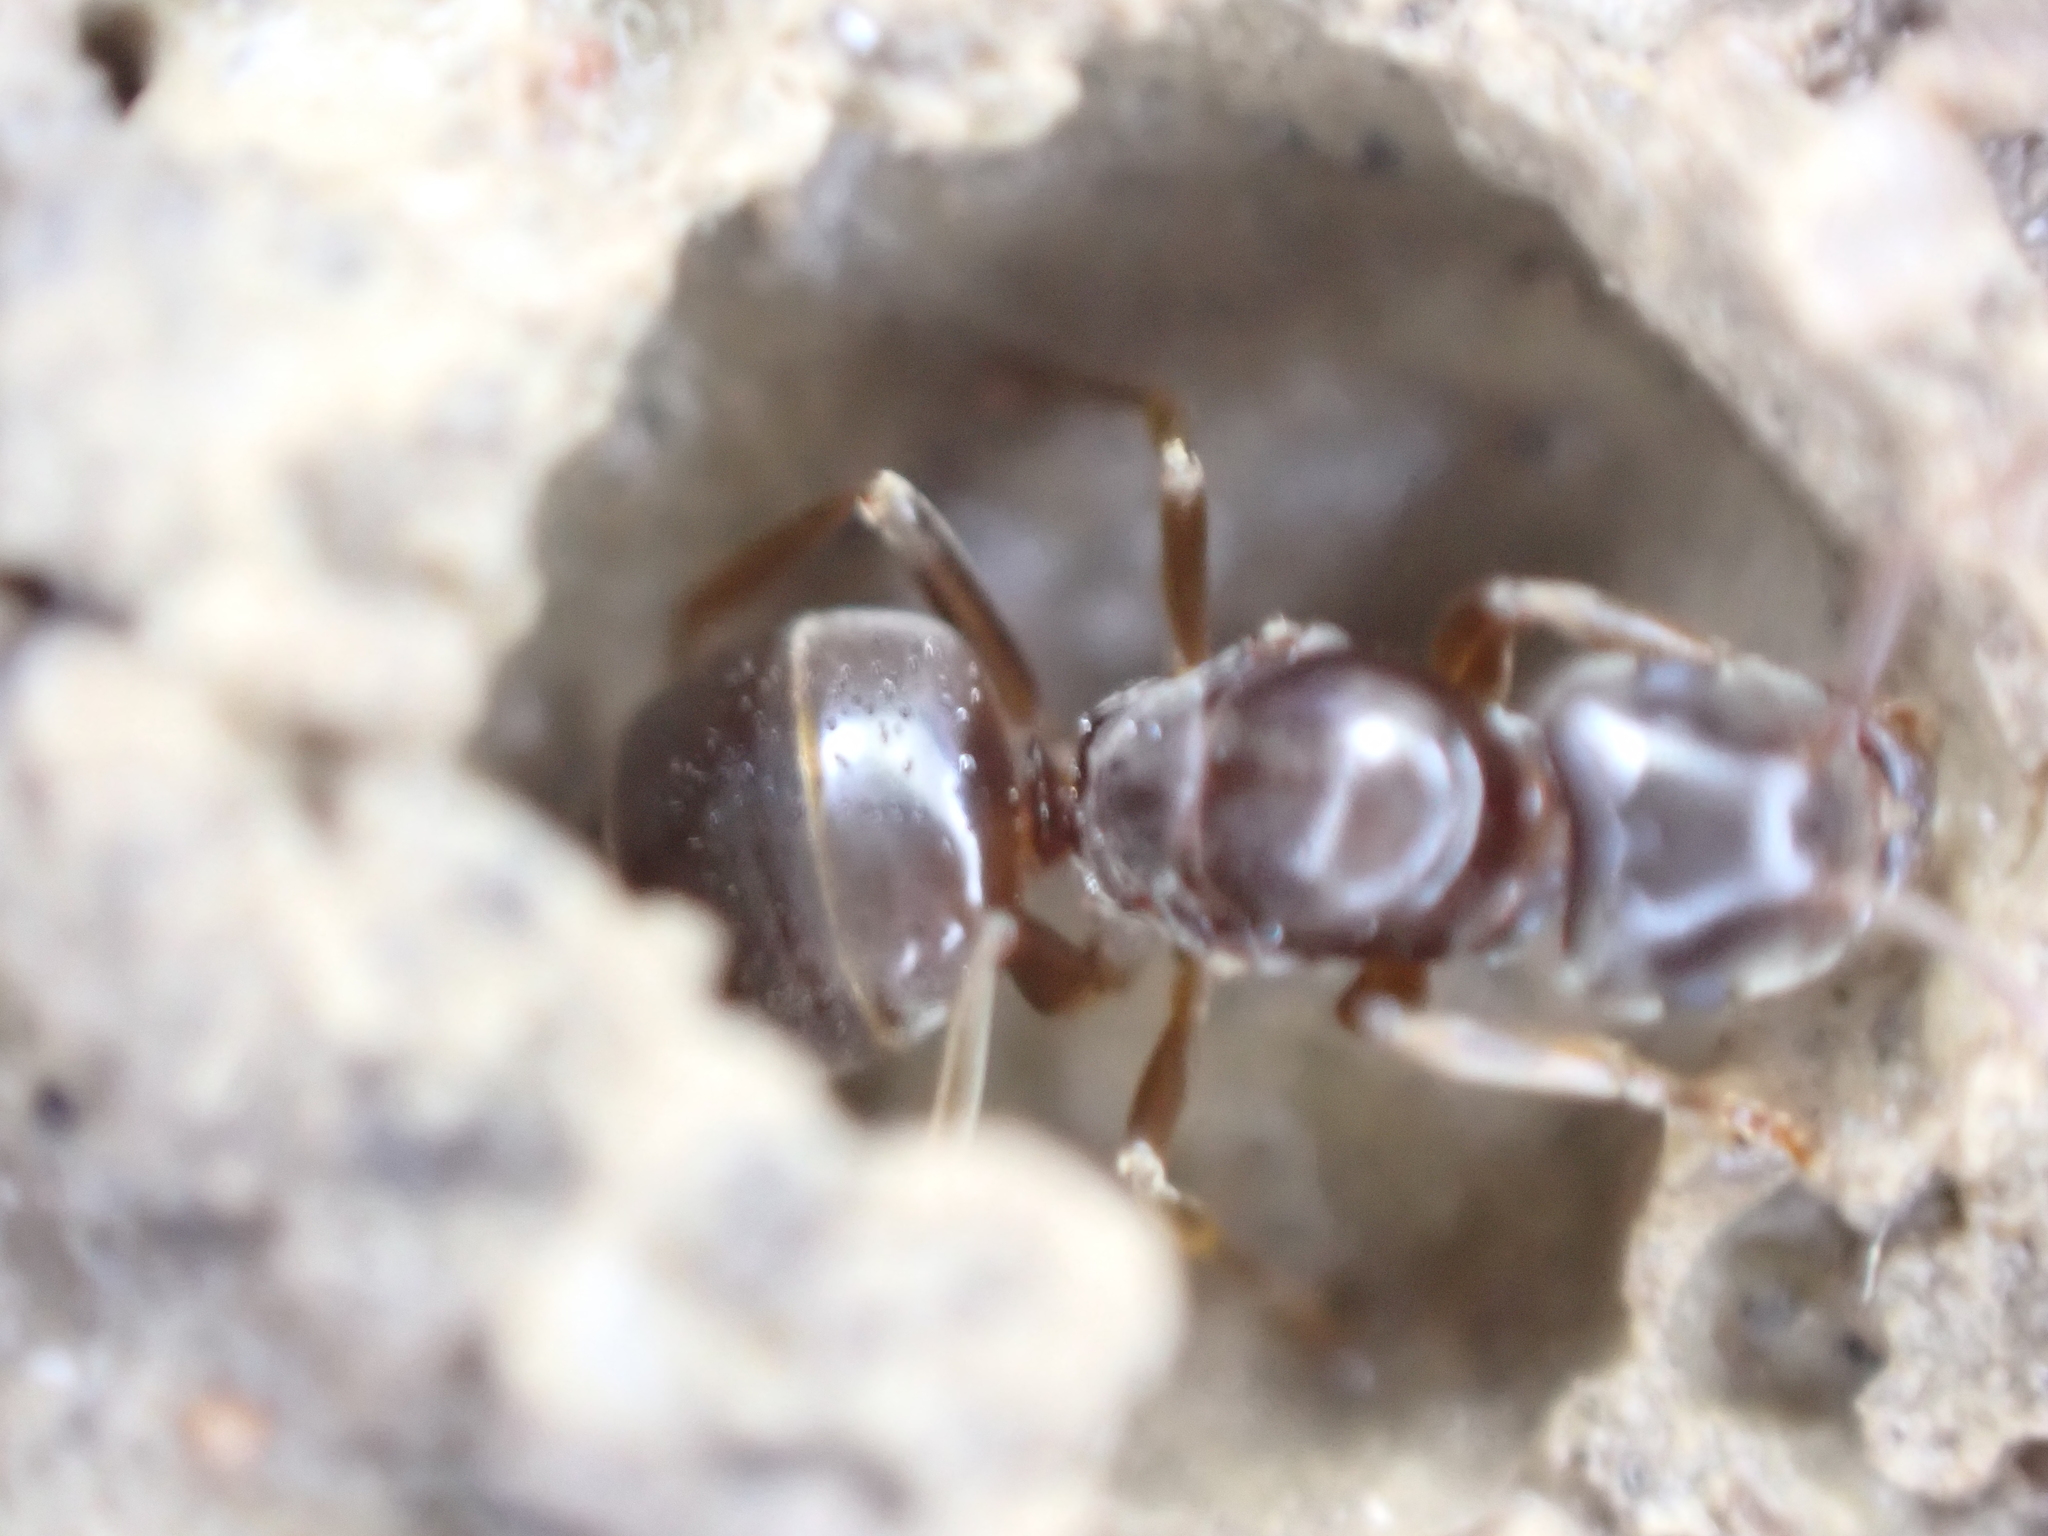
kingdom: Animalia
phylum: Arthropoda
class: Insecta
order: Hymenoptera
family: Formicidae
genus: Lasius
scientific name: Lasius aphidicola
